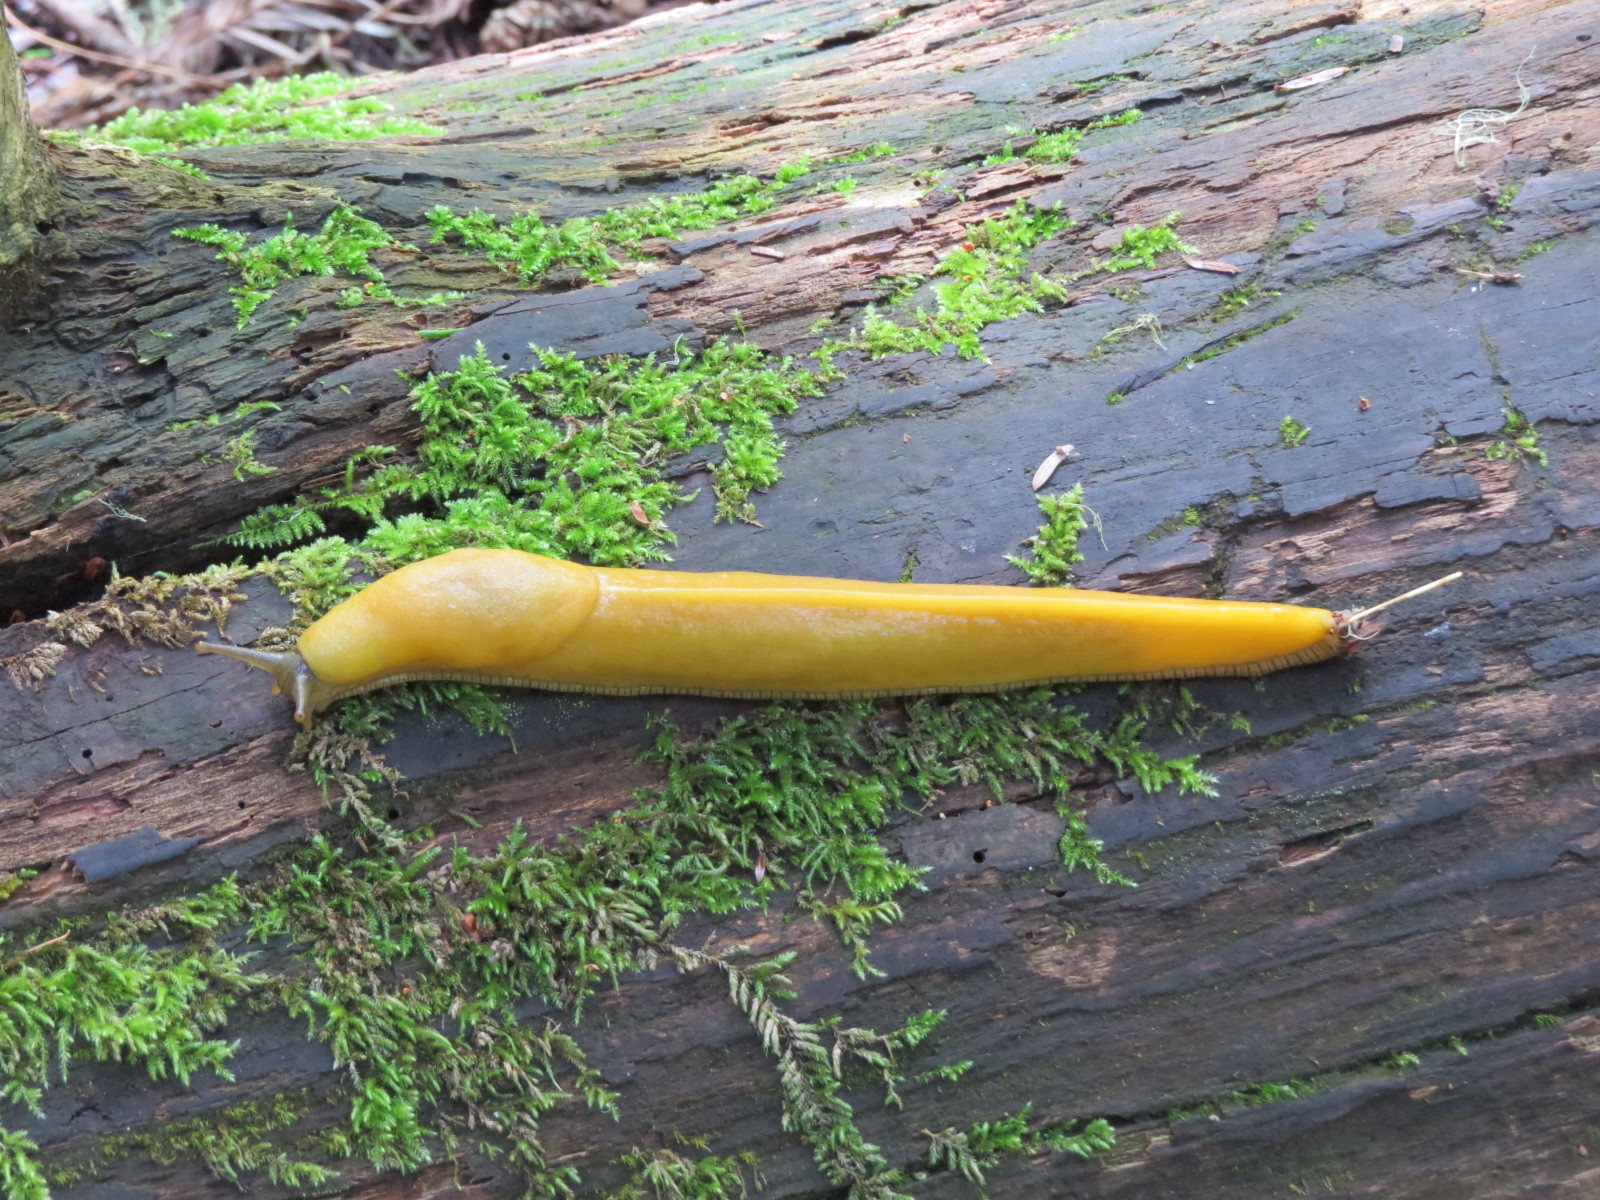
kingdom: Animalia
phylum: Mollusca
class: Gastropoda
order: Stylommatophora
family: Ariolimacidae
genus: Ariolimax
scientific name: Ariolimax californicus
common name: California banana slug
